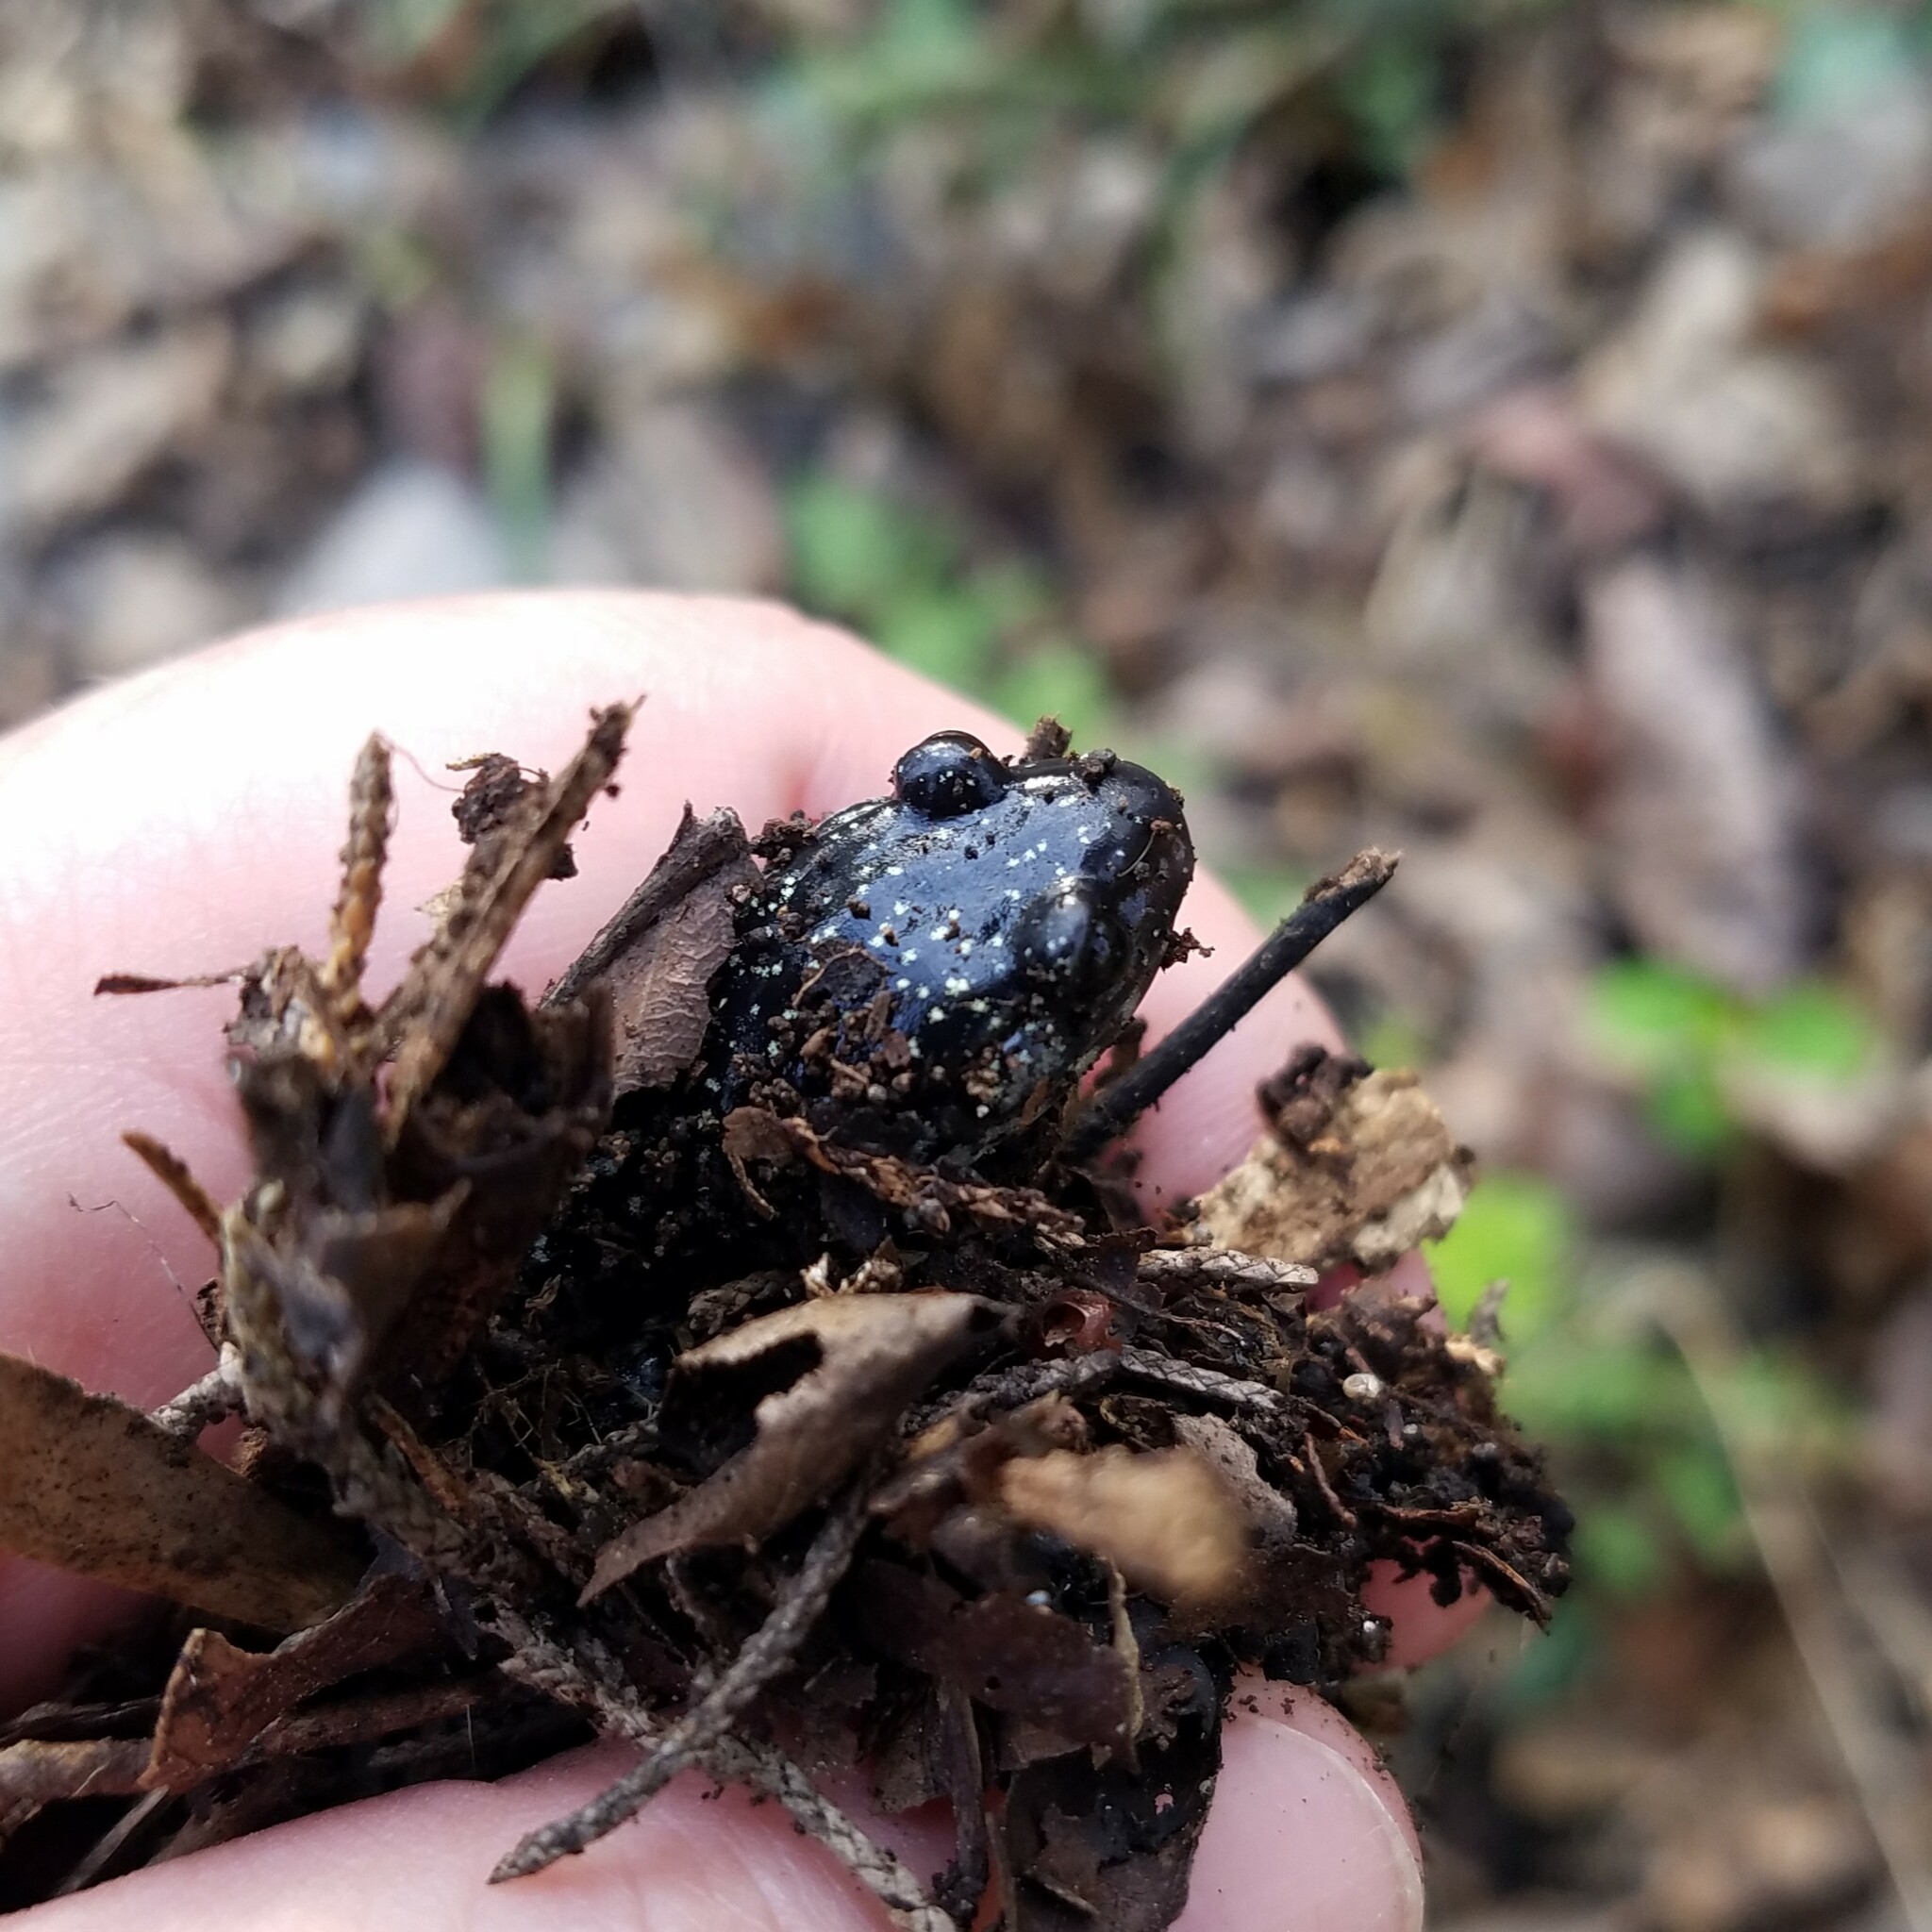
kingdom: Animalia
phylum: Chordata
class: Amphibia
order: Caudata
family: Plethodontidae
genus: Plethodon
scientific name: Plethodon glutinosus
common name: Northern slimy salamander
